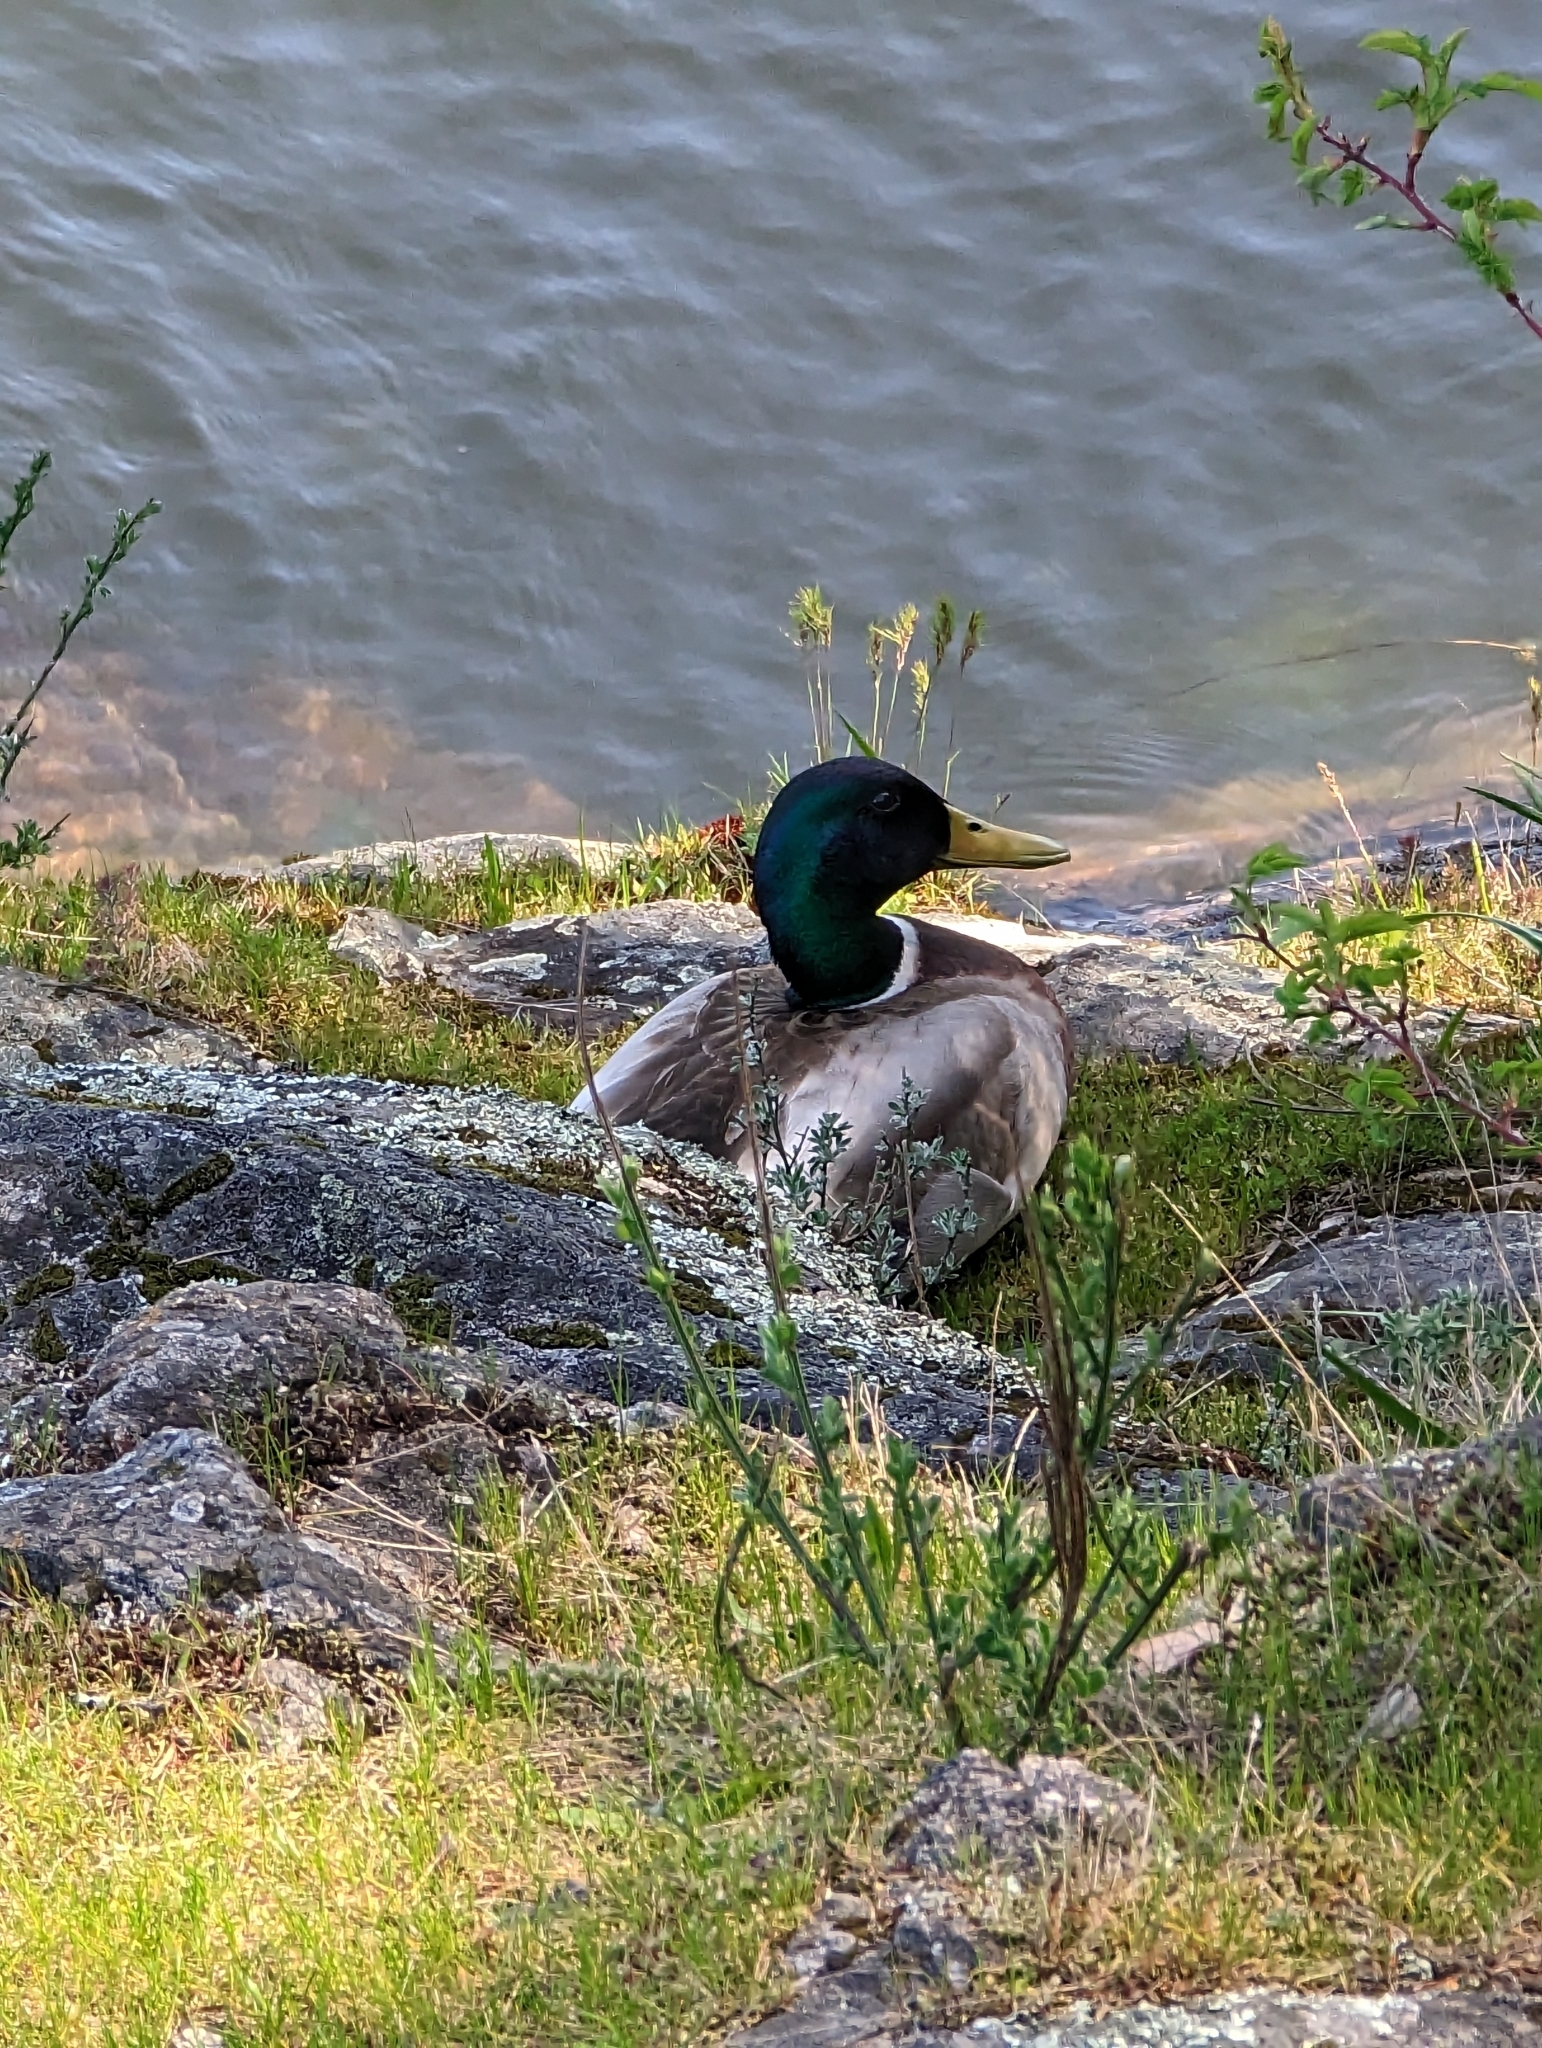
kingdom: Animalia
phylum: Chordata
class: Aves
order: Anseriformes
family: Anatidae
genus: Anas
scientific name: Anas platyrhynchos
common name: Mallard
